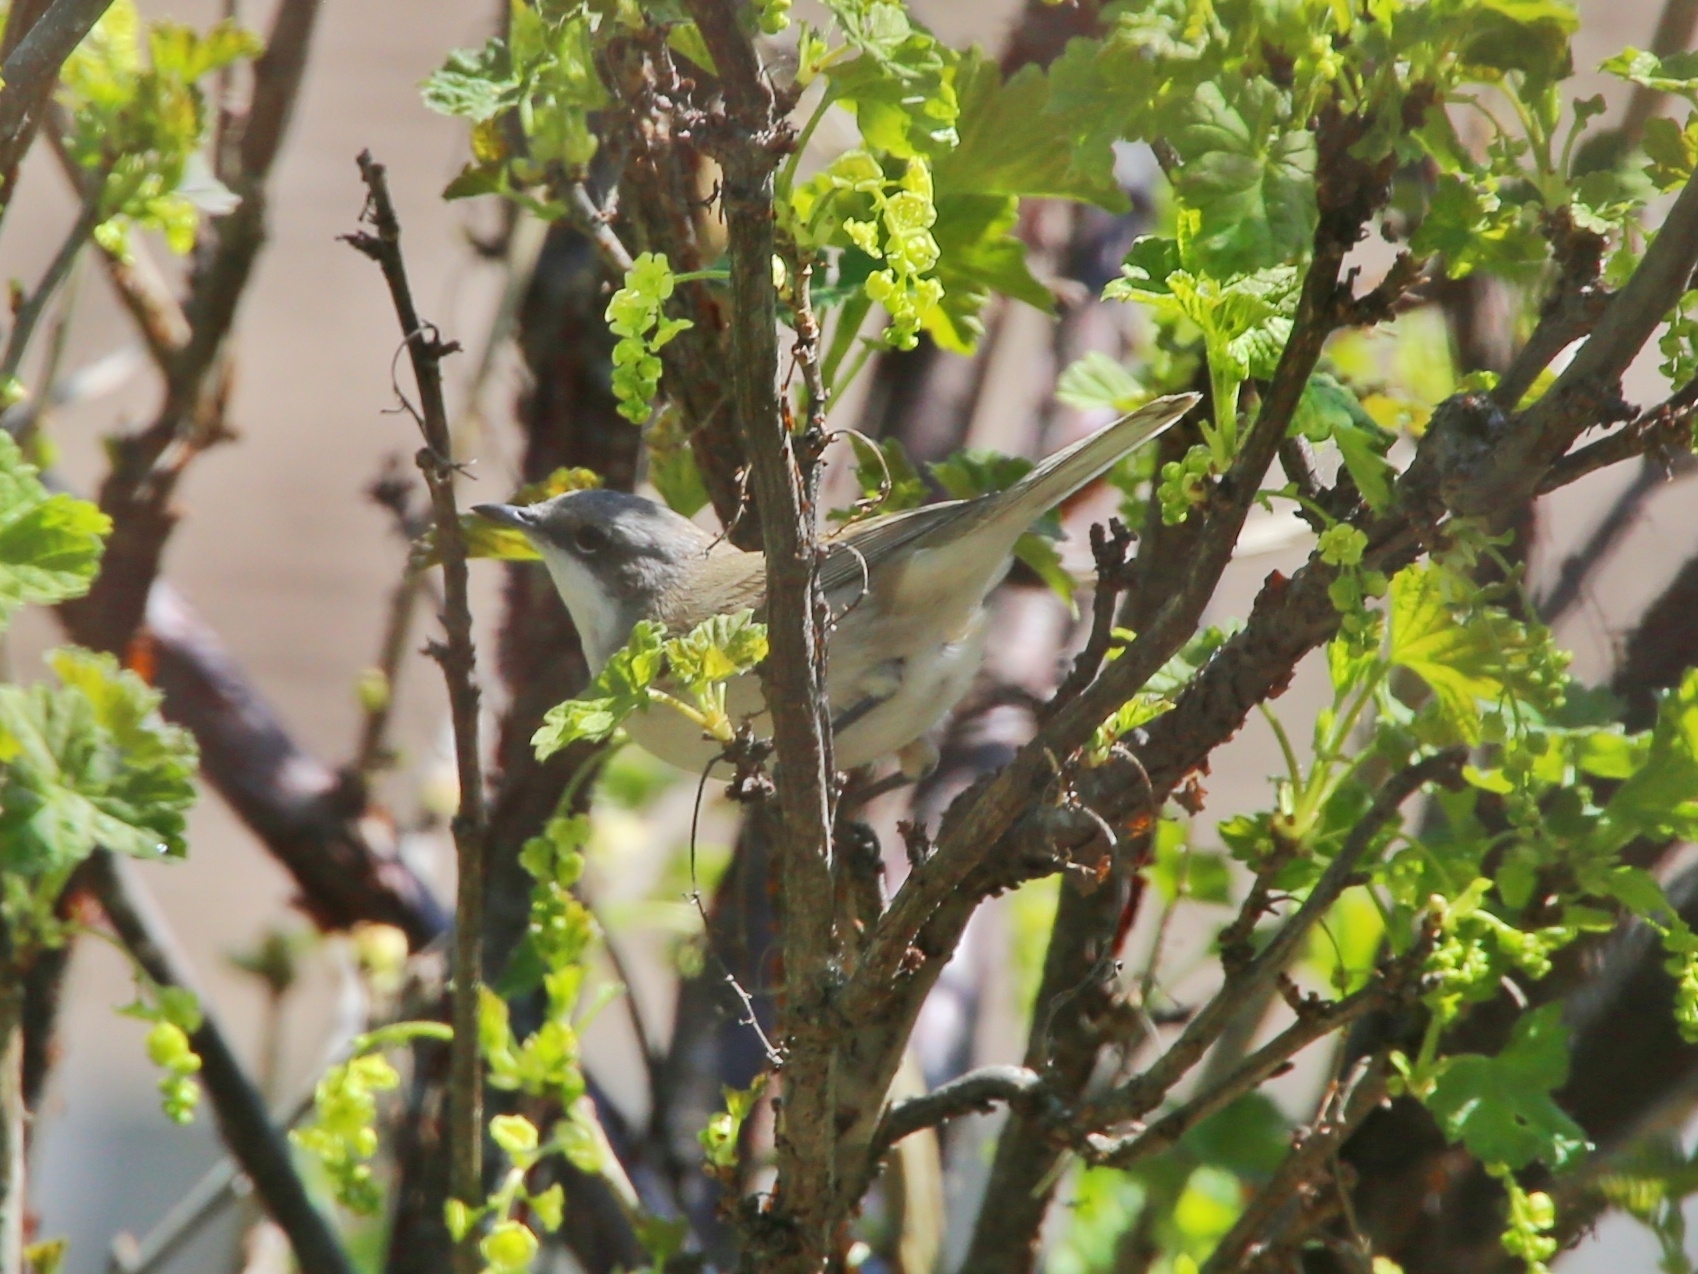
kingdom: Animalia
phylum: Chordata
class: Aves
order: Passeriformes
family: Sylviidae
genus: Sylvia
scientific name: Sylvia curruca
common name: Lesser whitethroat
